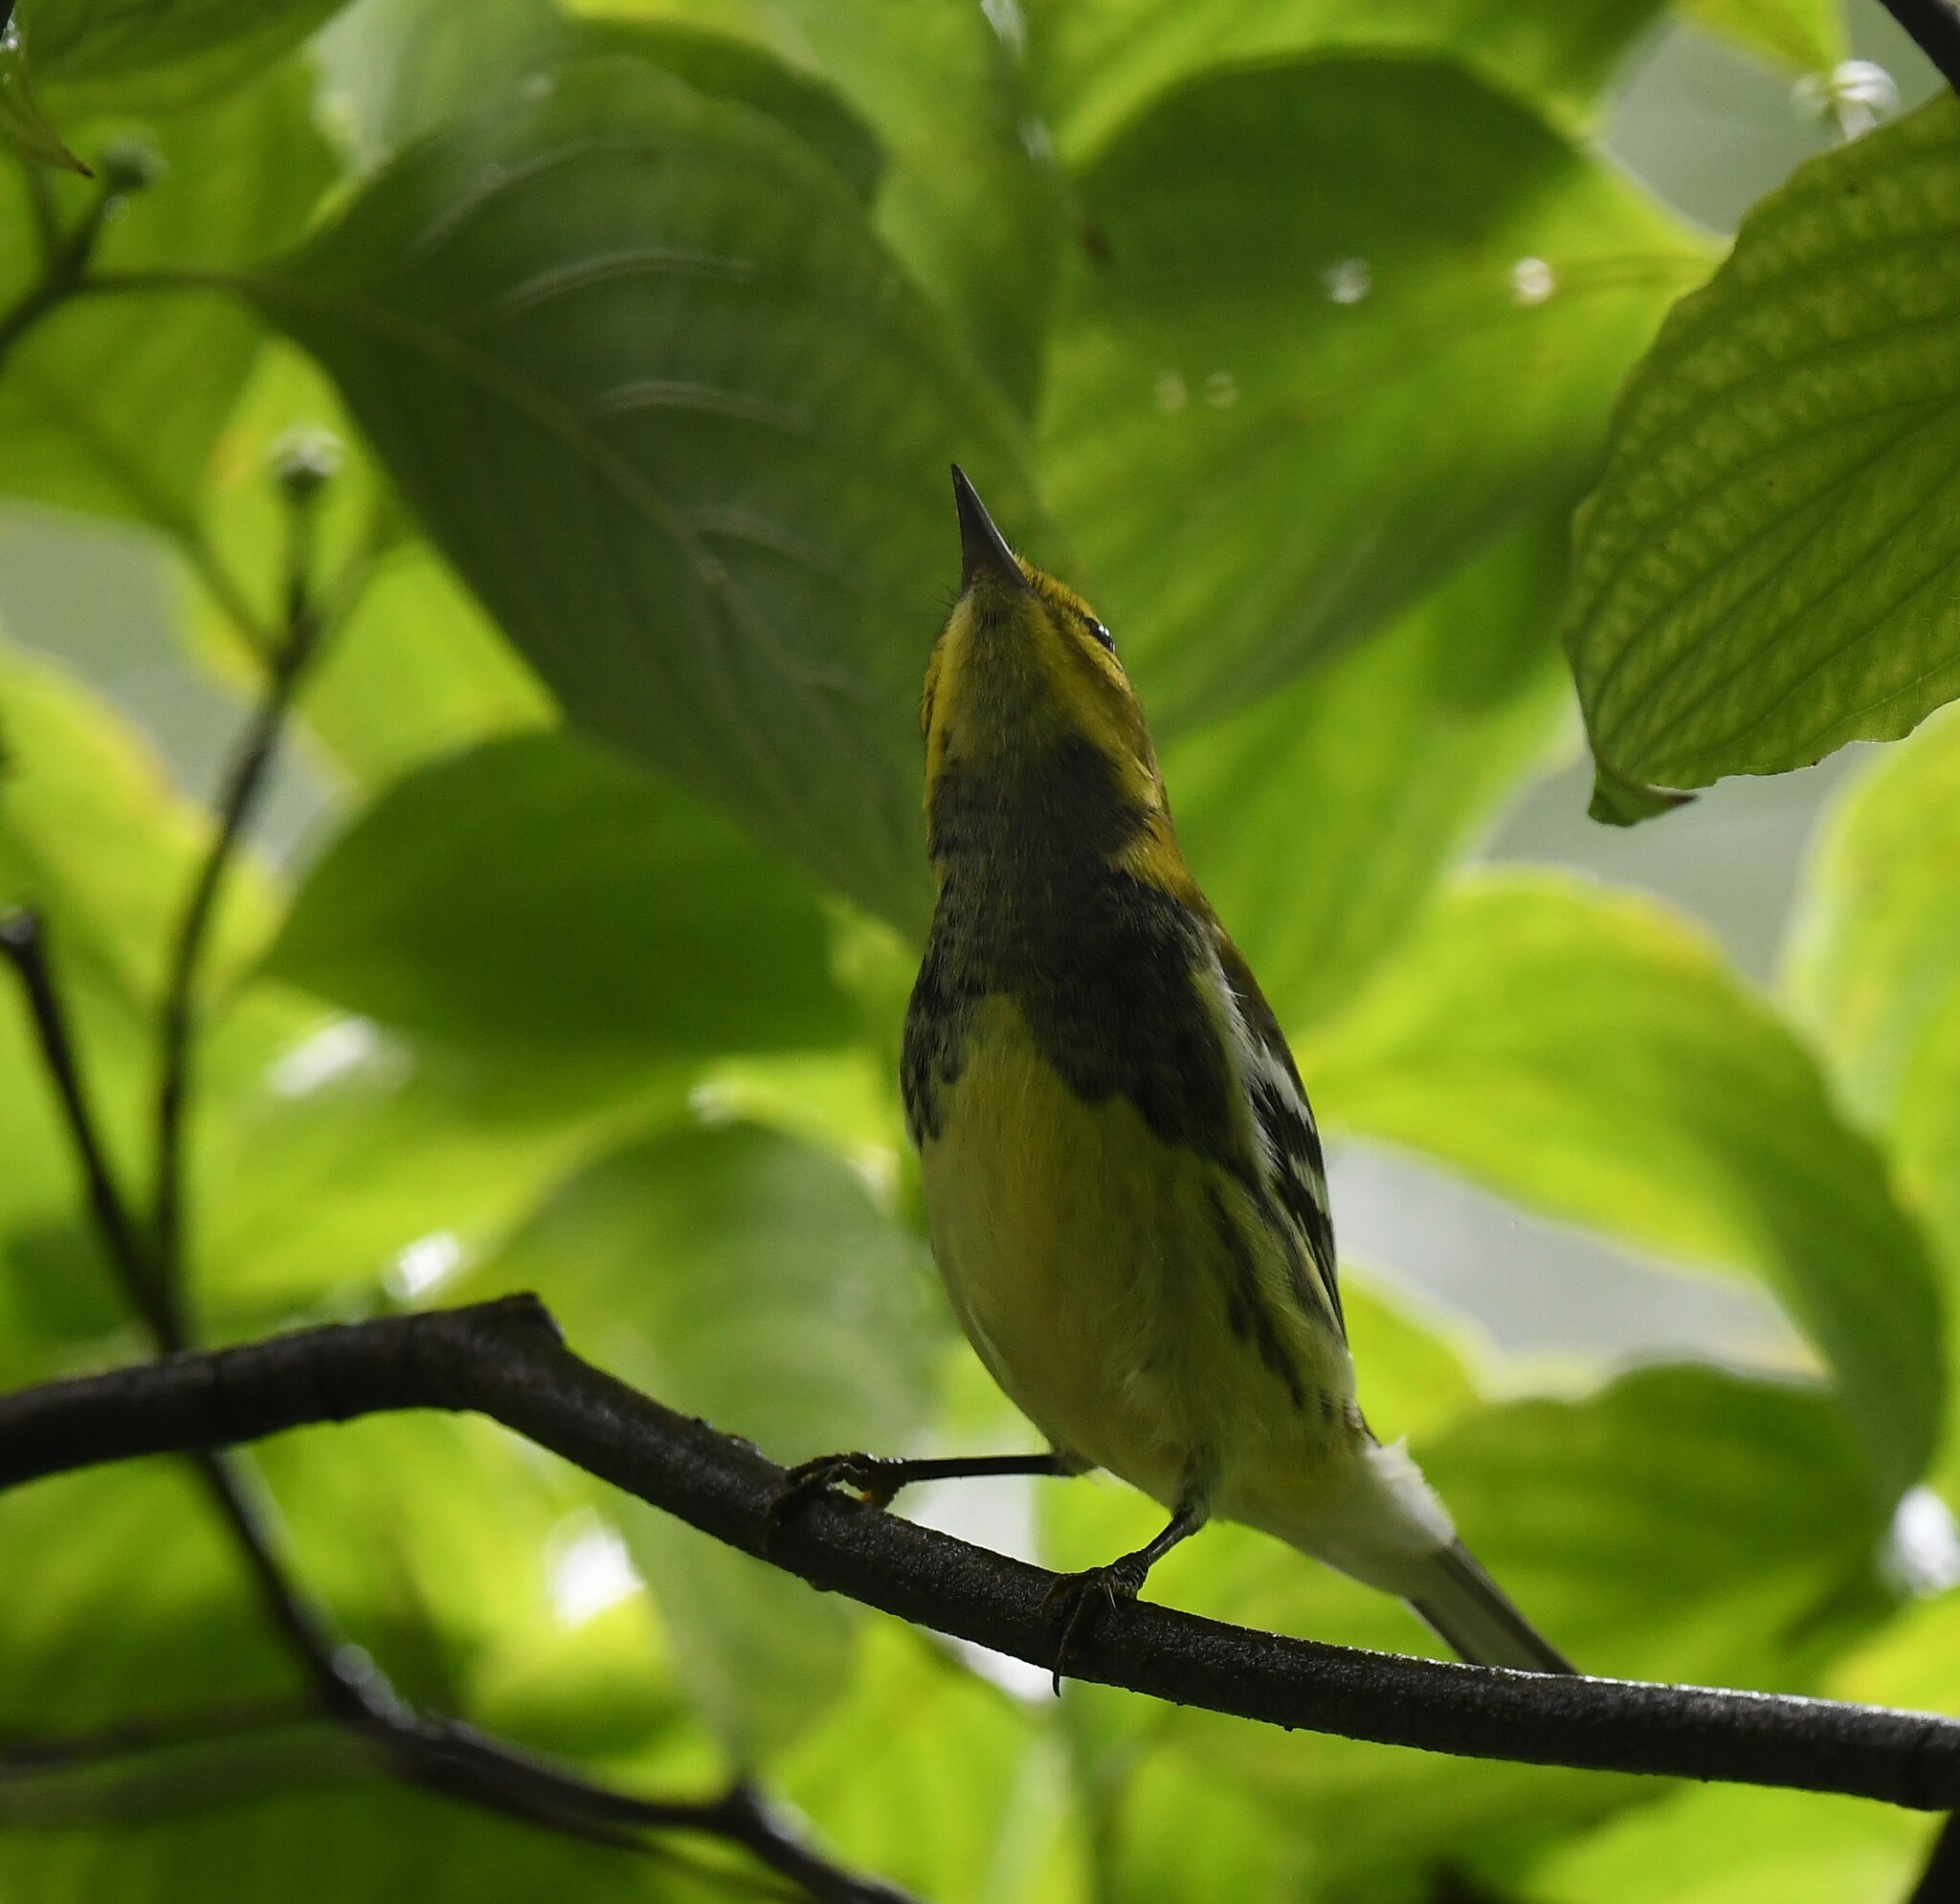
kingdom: Animalia
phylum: Chordata
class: Aves
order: Passeriformes
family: Parulidae
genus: Setophaga
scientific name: Setophaga virens
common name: Black-throated green warbler
